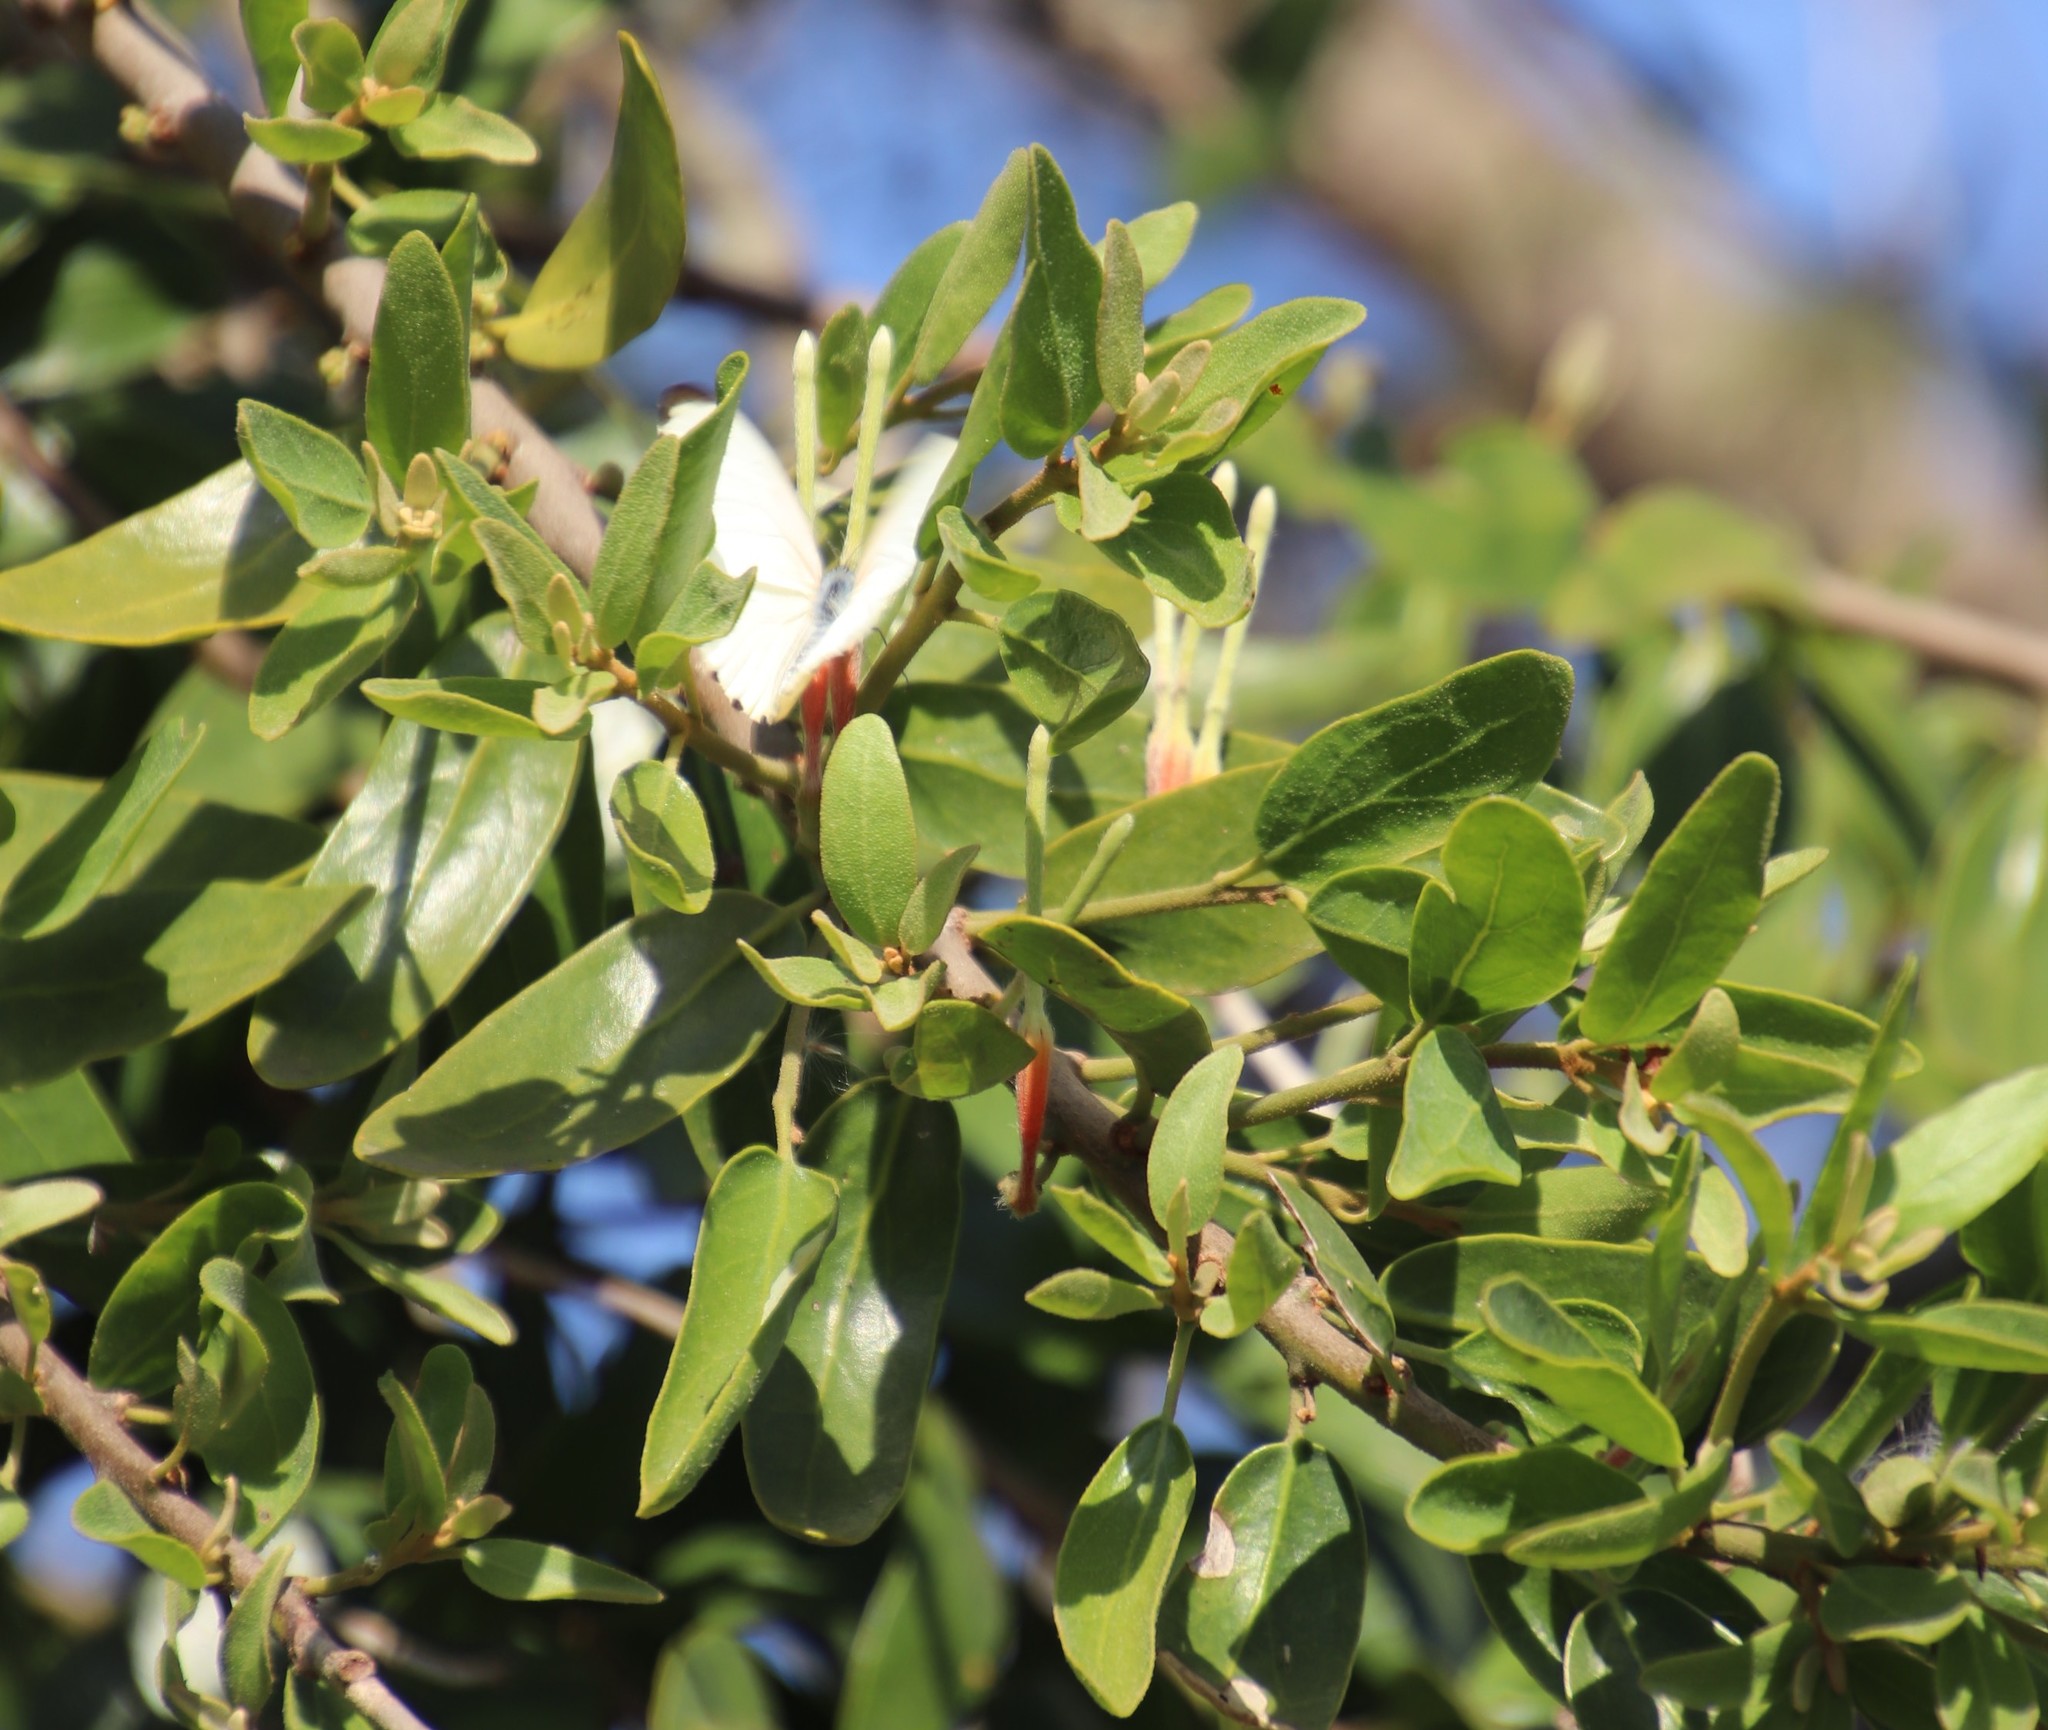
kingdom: Animalia
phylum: Arthropoda
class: Insecta
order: Lepidoptera
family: Pieridae
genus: Mylothris
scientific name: Mylothris agathina
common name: Eastern dotted border
